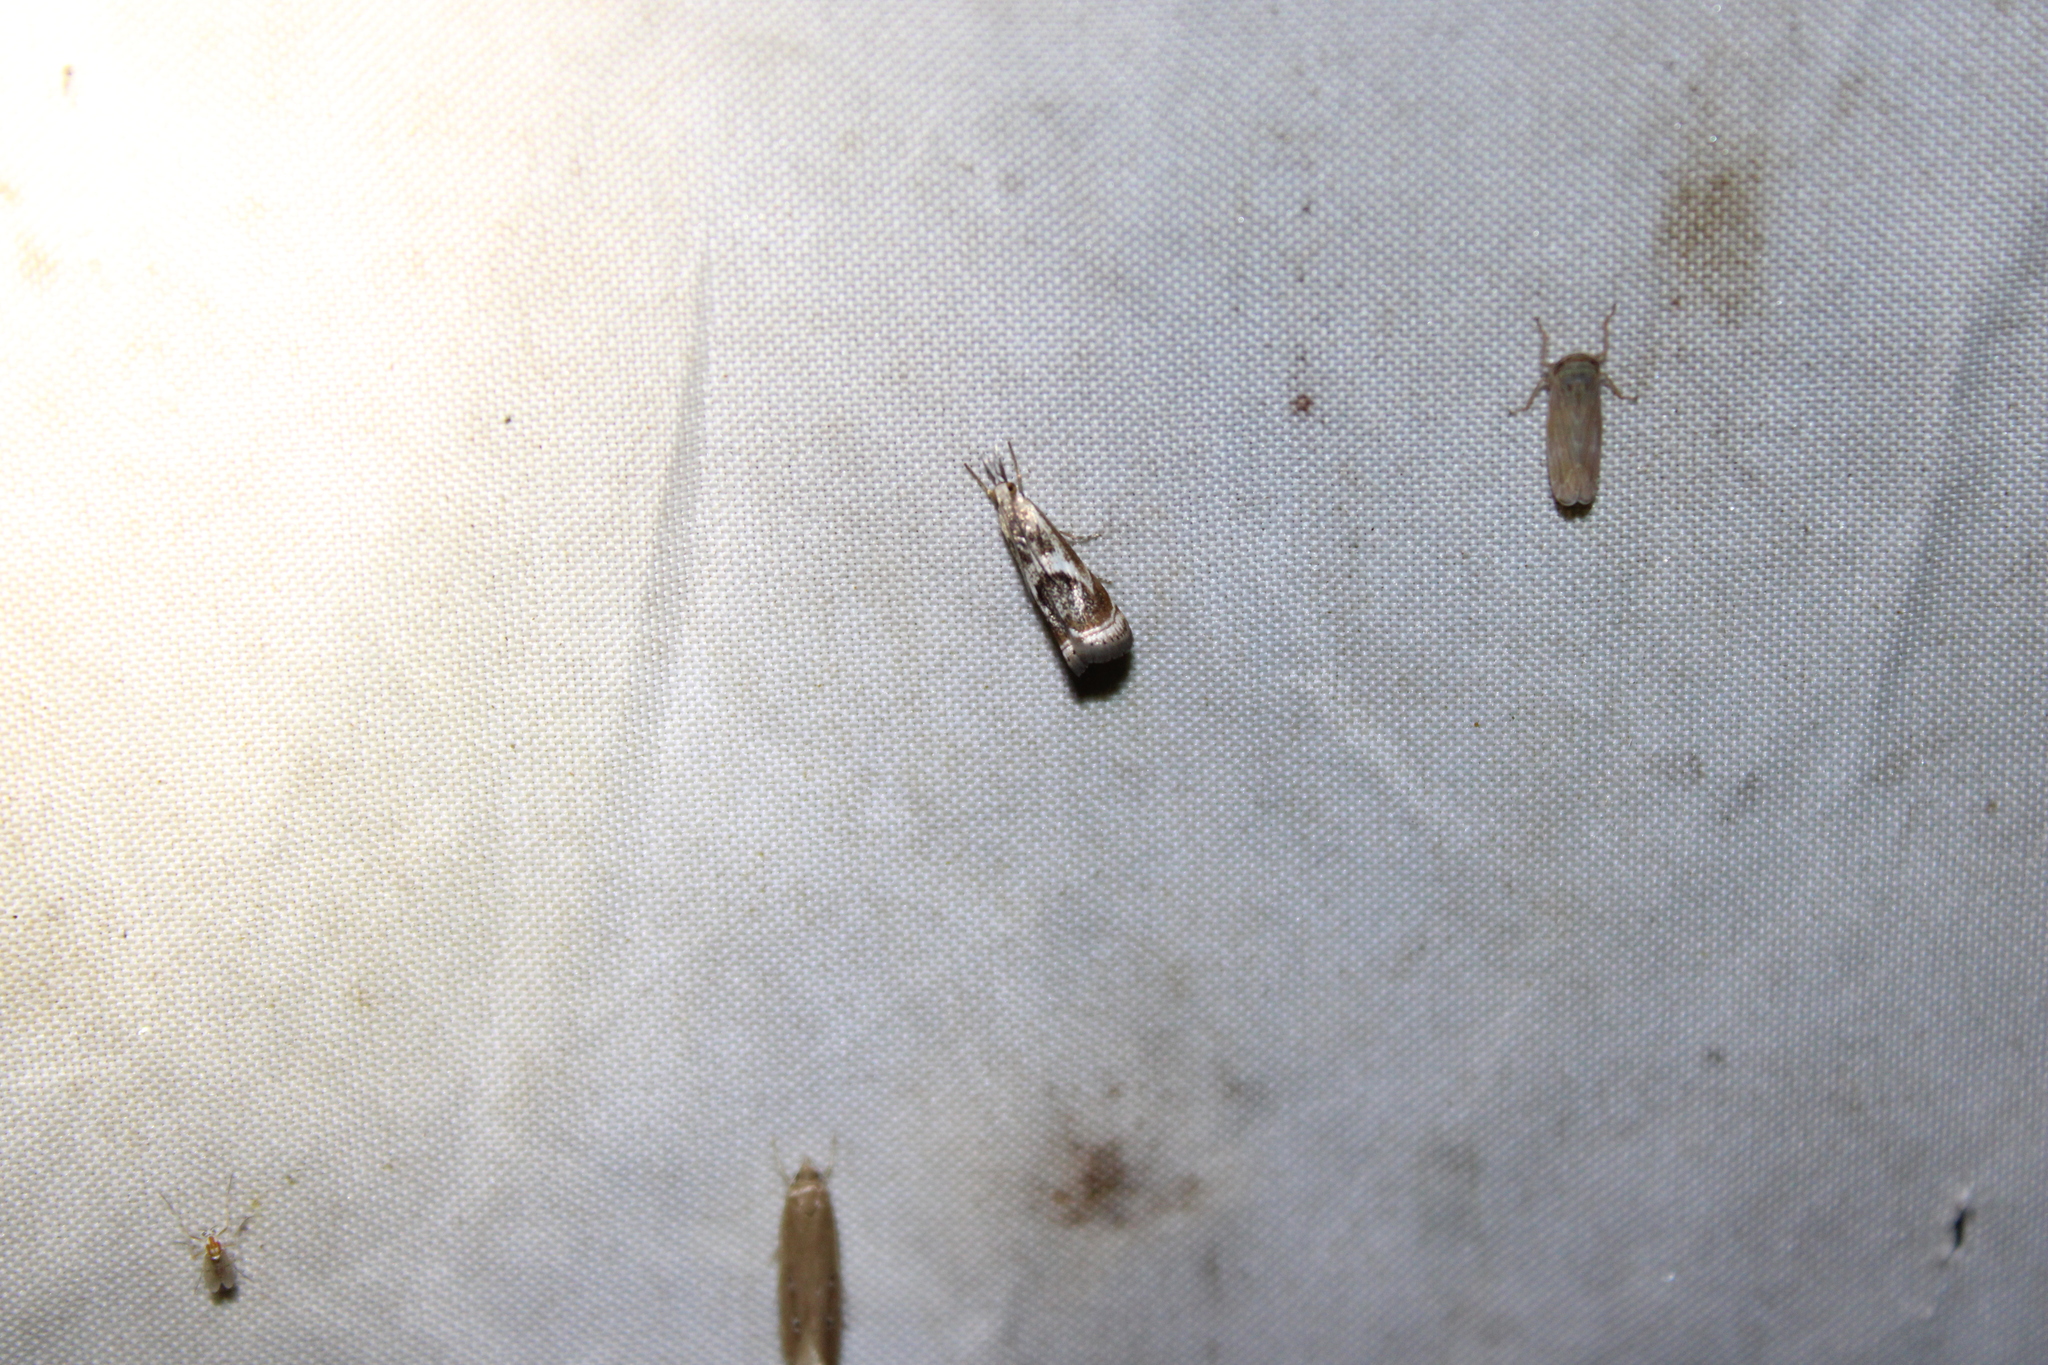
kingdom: Animalia
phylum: Arthropoda
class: Insecta
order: Lepidoptera
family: Crambidae
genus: Microcrambus
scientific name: Microcrambus elegans
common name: Elegant grass-veneer
